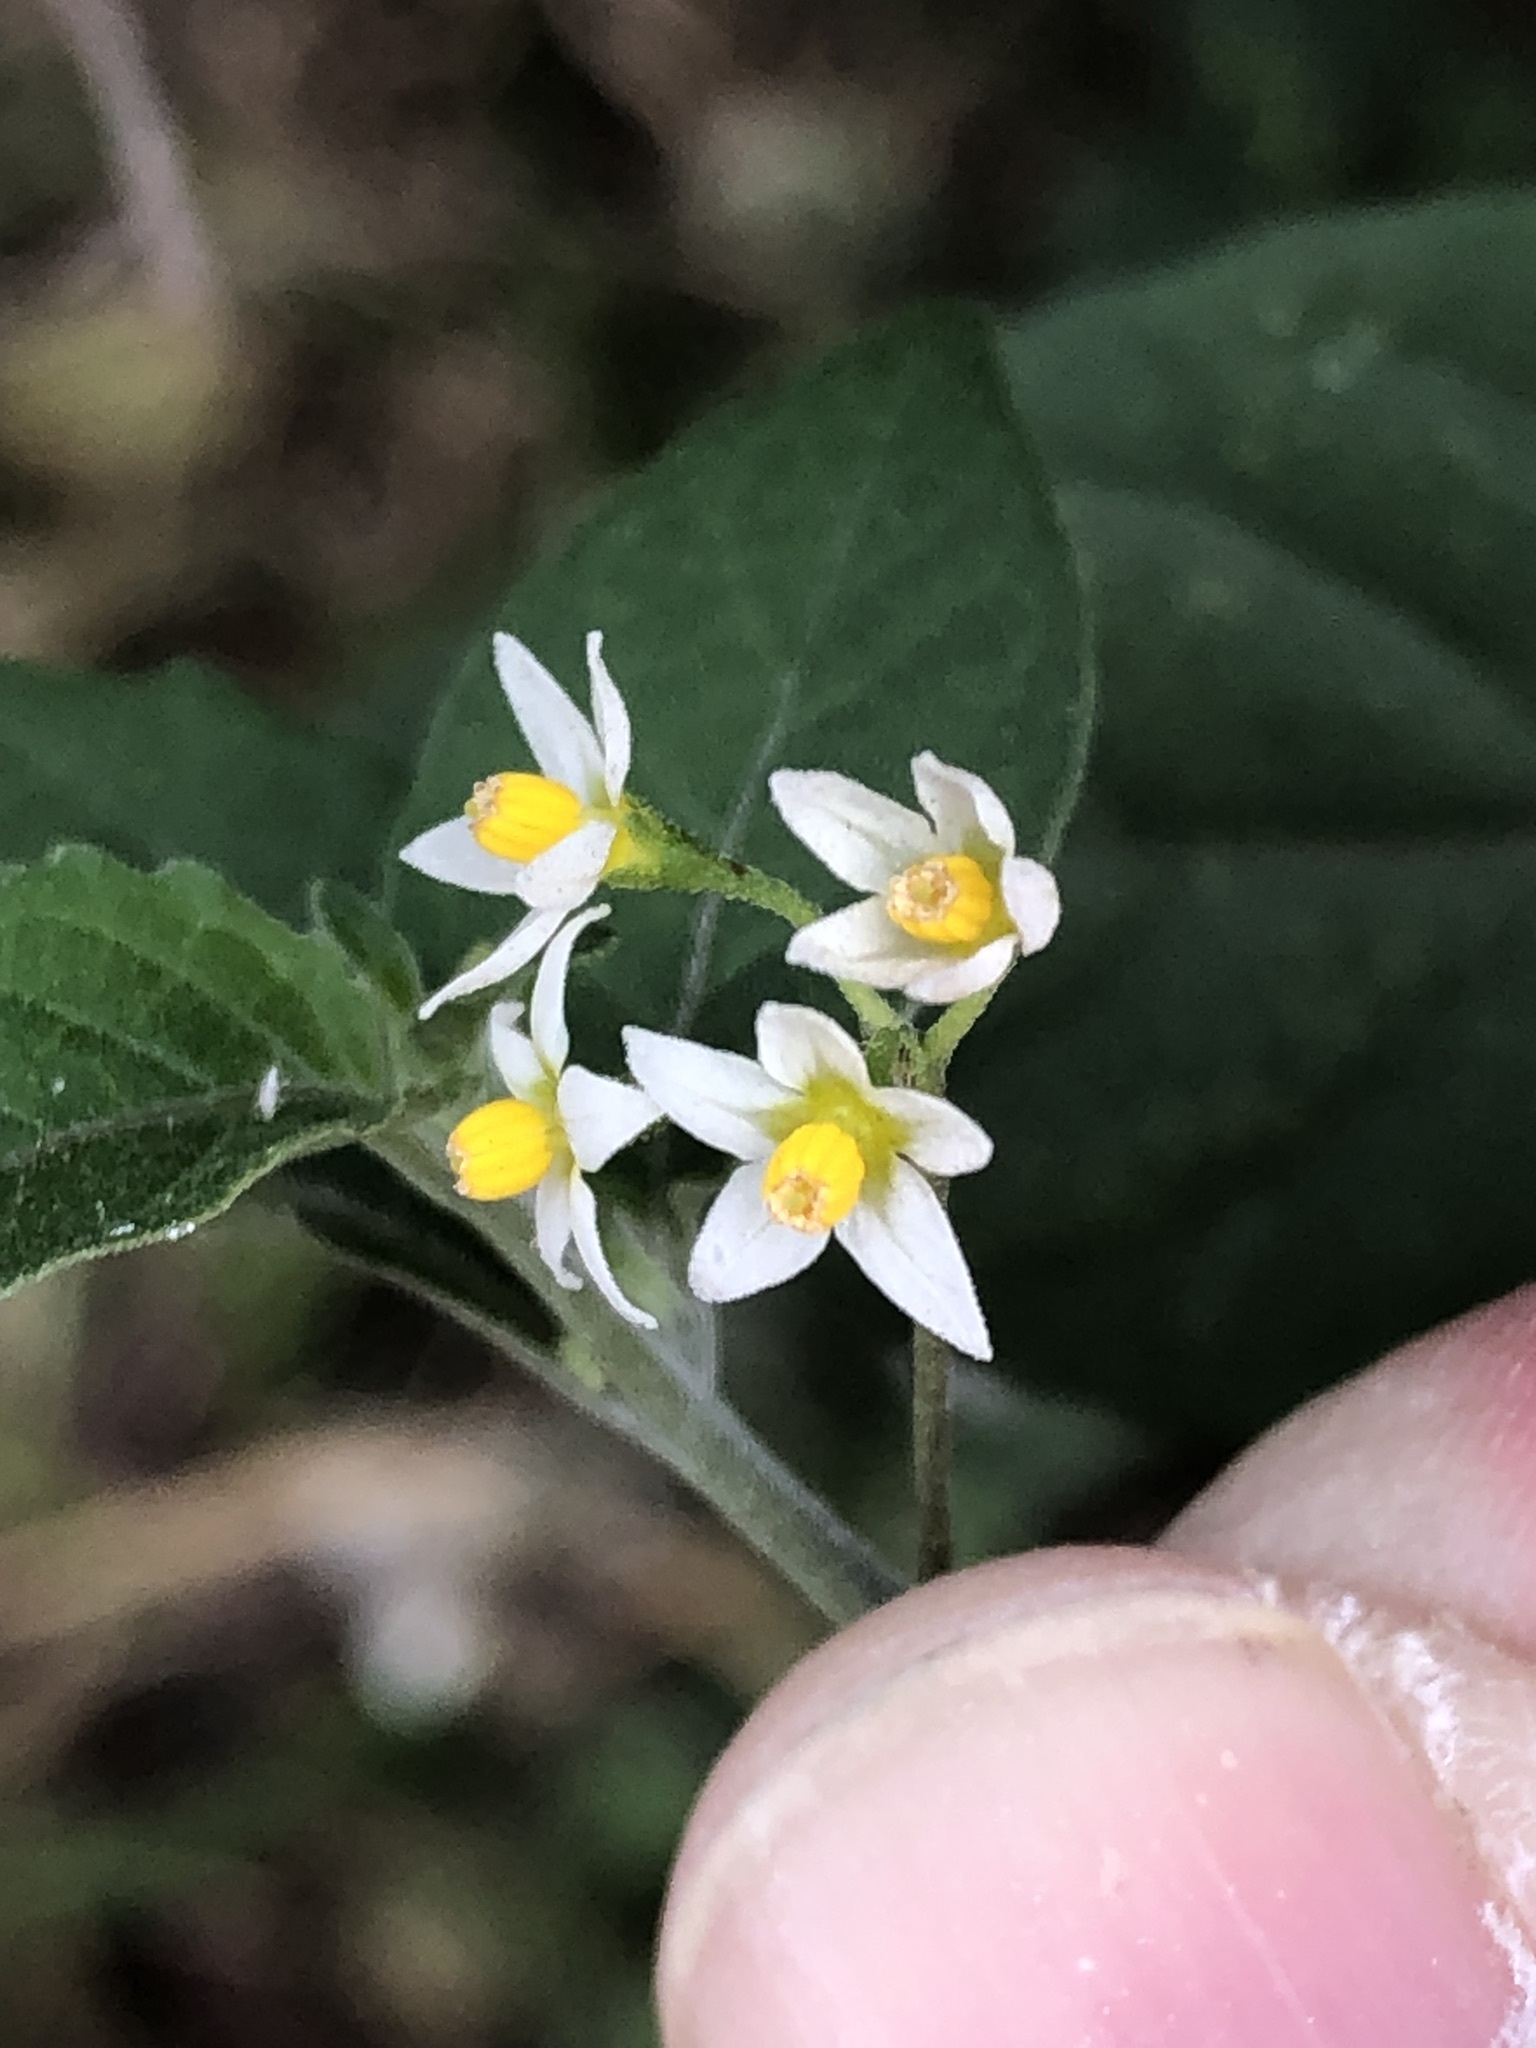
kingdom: Plantae
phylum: Tracheophyta
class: Magnoliopsida
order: Solanales
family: Solanaceae
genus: Solanum
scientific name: Solanum americanum
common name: American black nightshade
